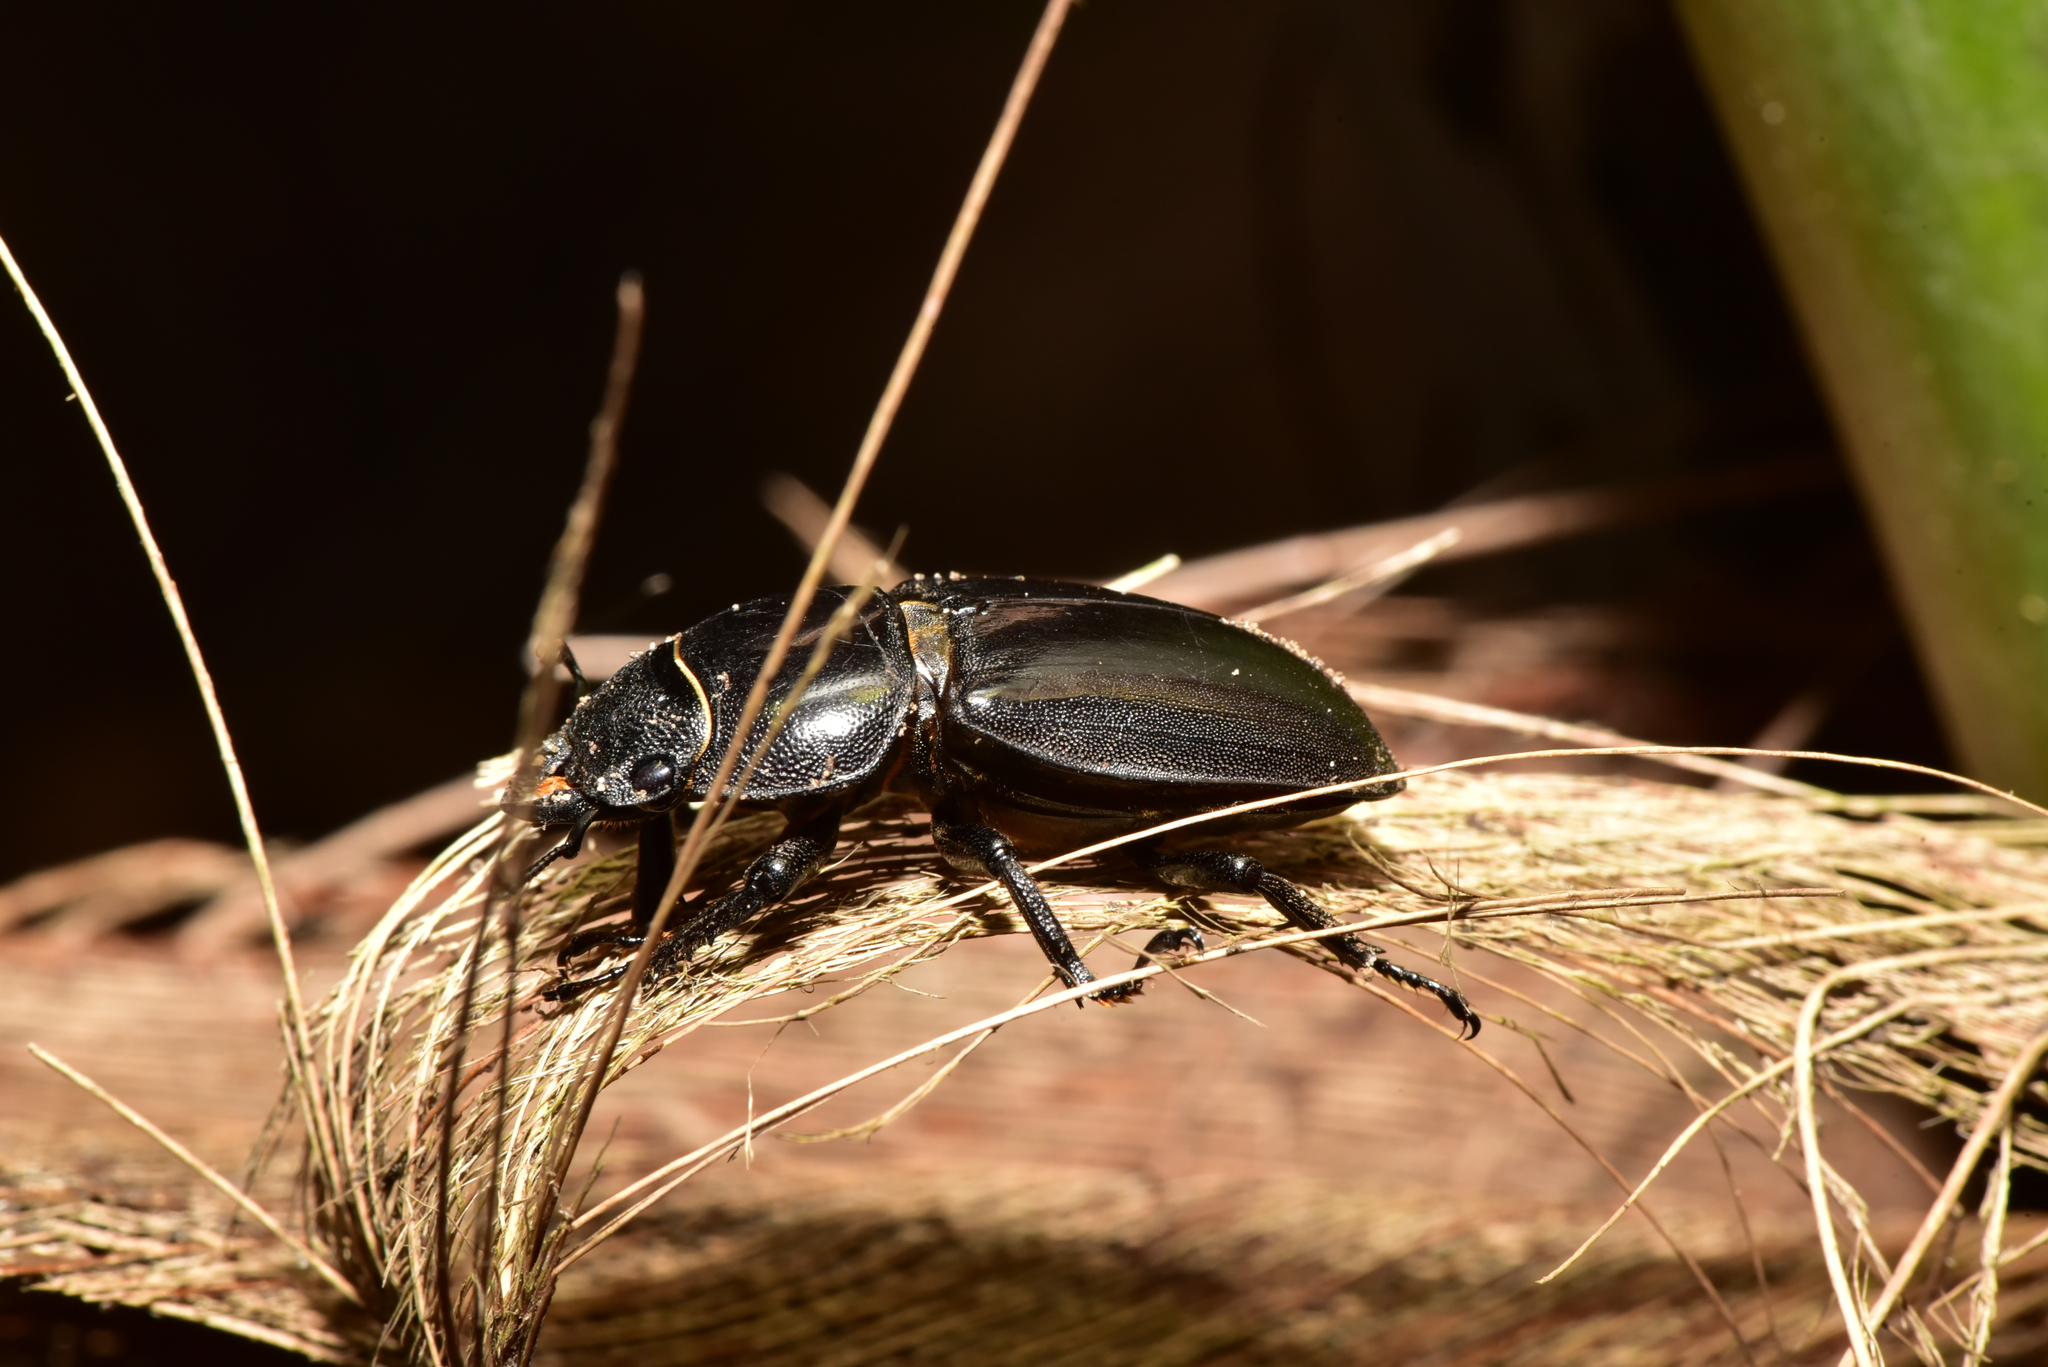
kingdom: Animalia
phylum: Arthropoda
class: Insecta
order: Coleoptera
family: Lucanidae
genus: Serrognathus
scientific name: Serrognathus titanus
